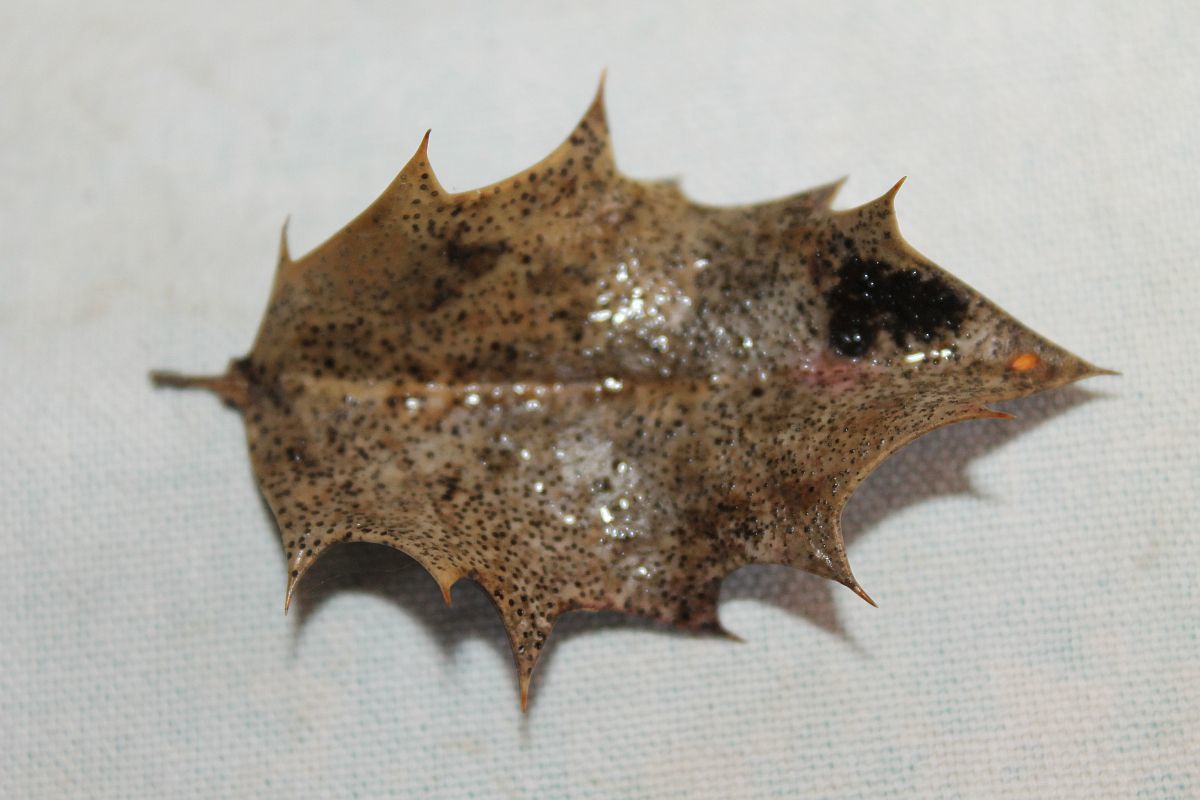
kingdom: Fungi
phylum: Ascomycota
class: Leotiomycetes
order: Helotiales
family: Cenangiaceae
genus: Trochila
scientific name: Trochila ilicina
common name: Holly speckle
